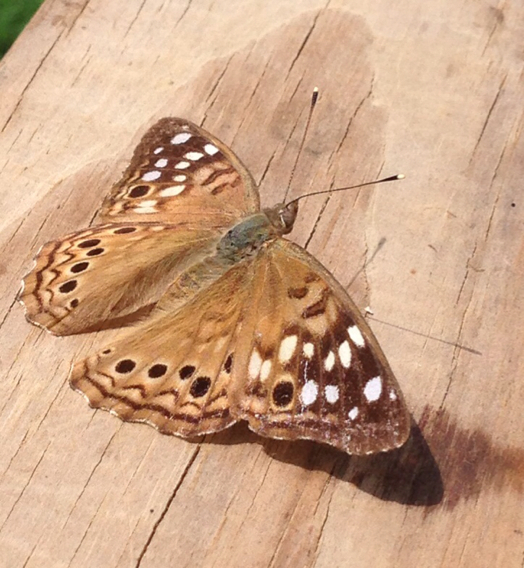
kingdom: Animalia
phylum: Arthropoda
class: Insecta
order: Lepidoptera
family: Nymphalidae
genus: Asterocampa
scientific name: Asterocampa celtis
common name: Hackberry emperor
